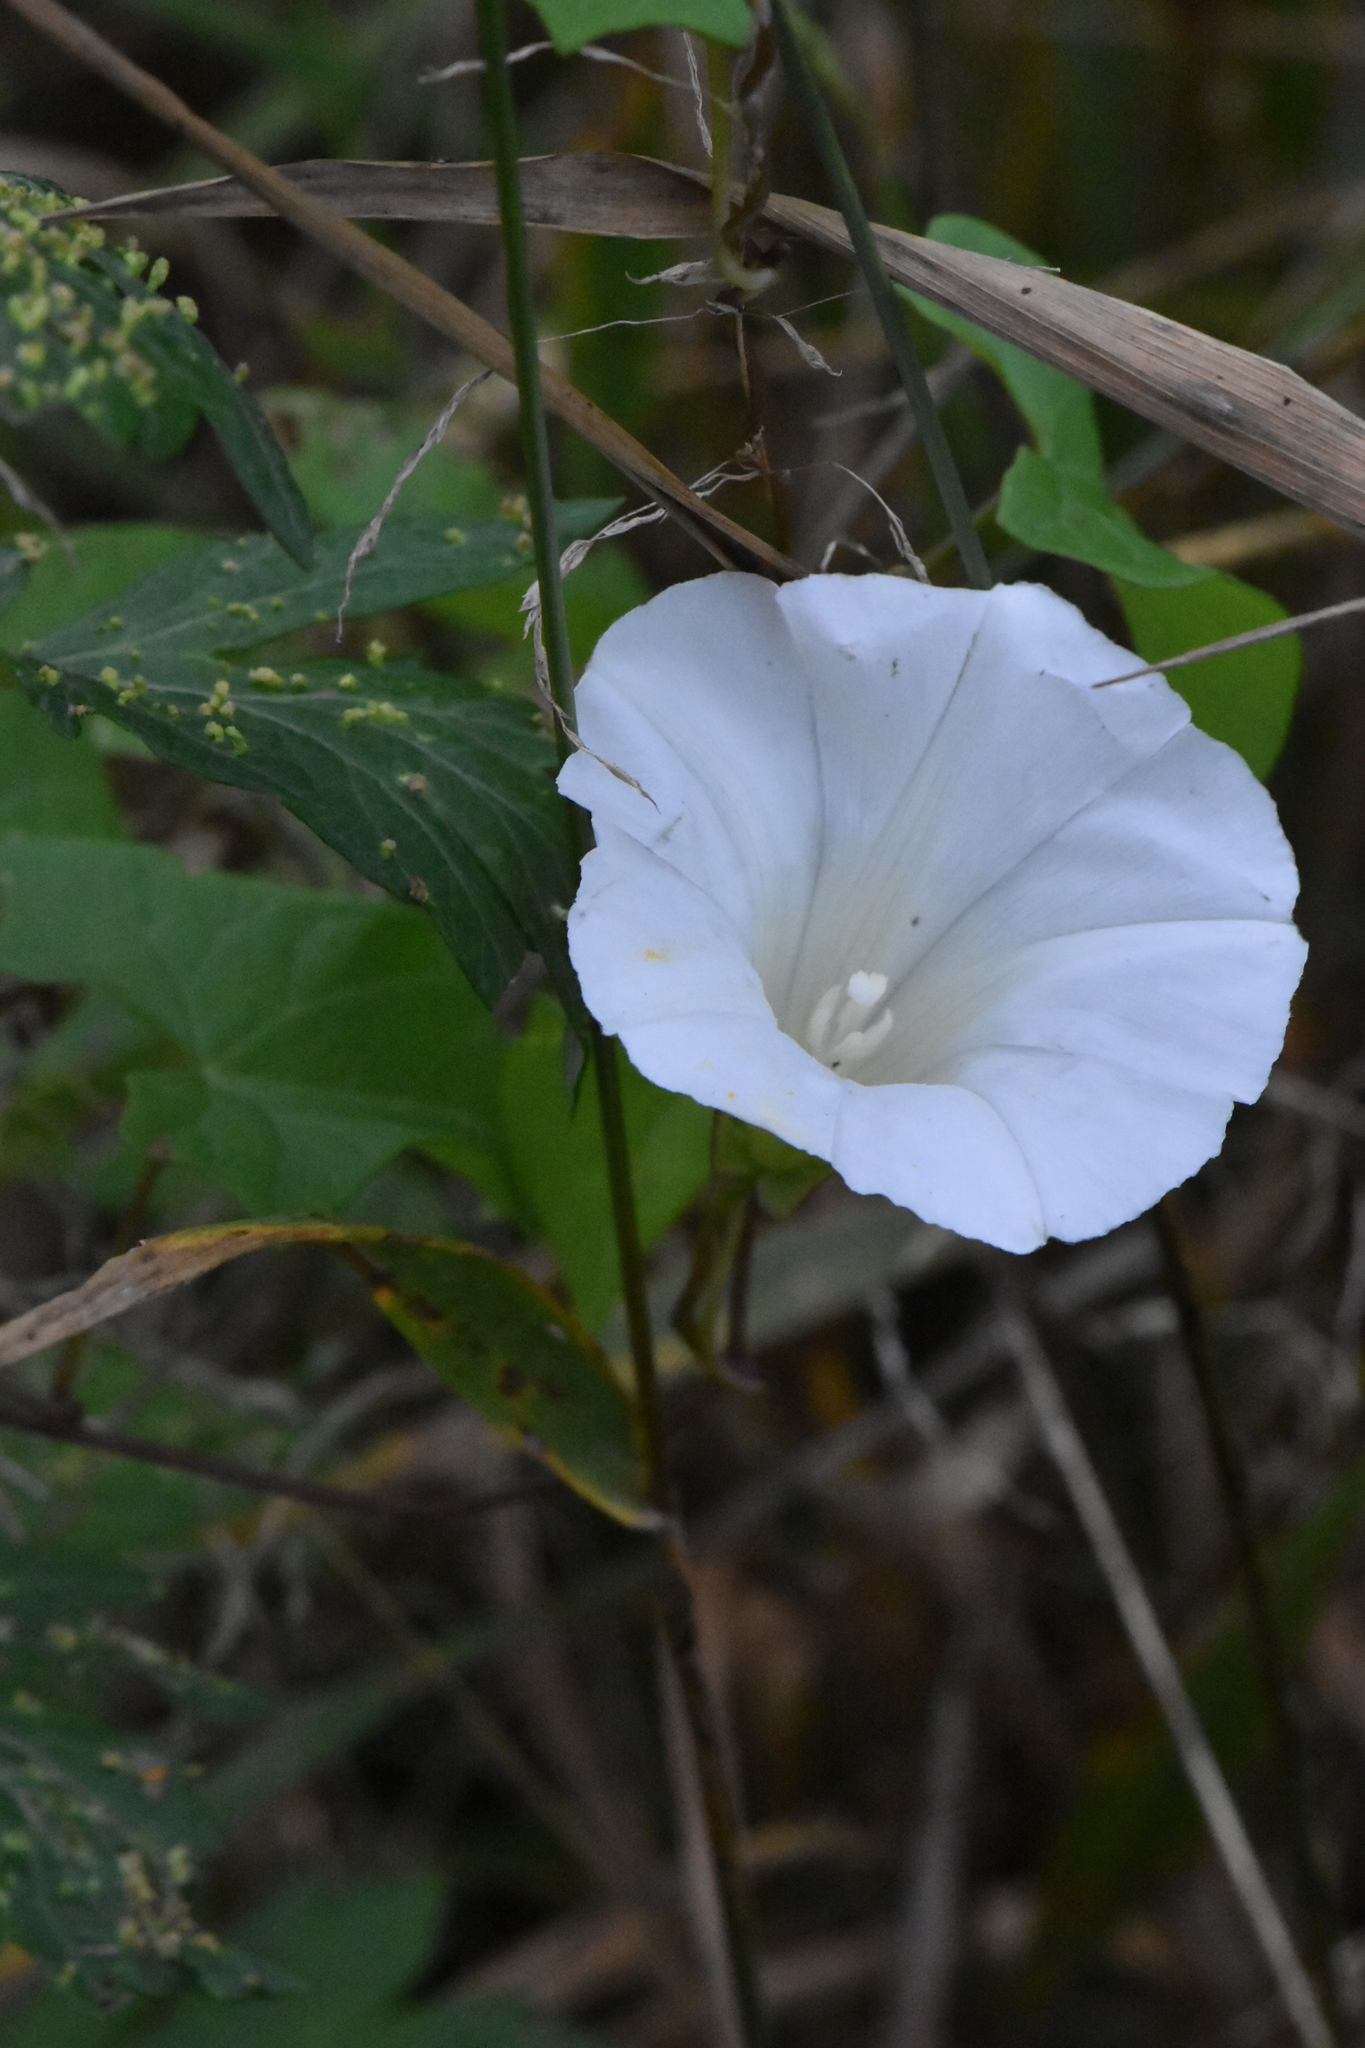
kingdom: Plantae
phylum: Tracheophyta
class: Magnoliopsida
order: Solanales
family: Convolvulaceae
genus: Calystegia
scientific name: Calystegia sepium
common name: Hedge bindweed
